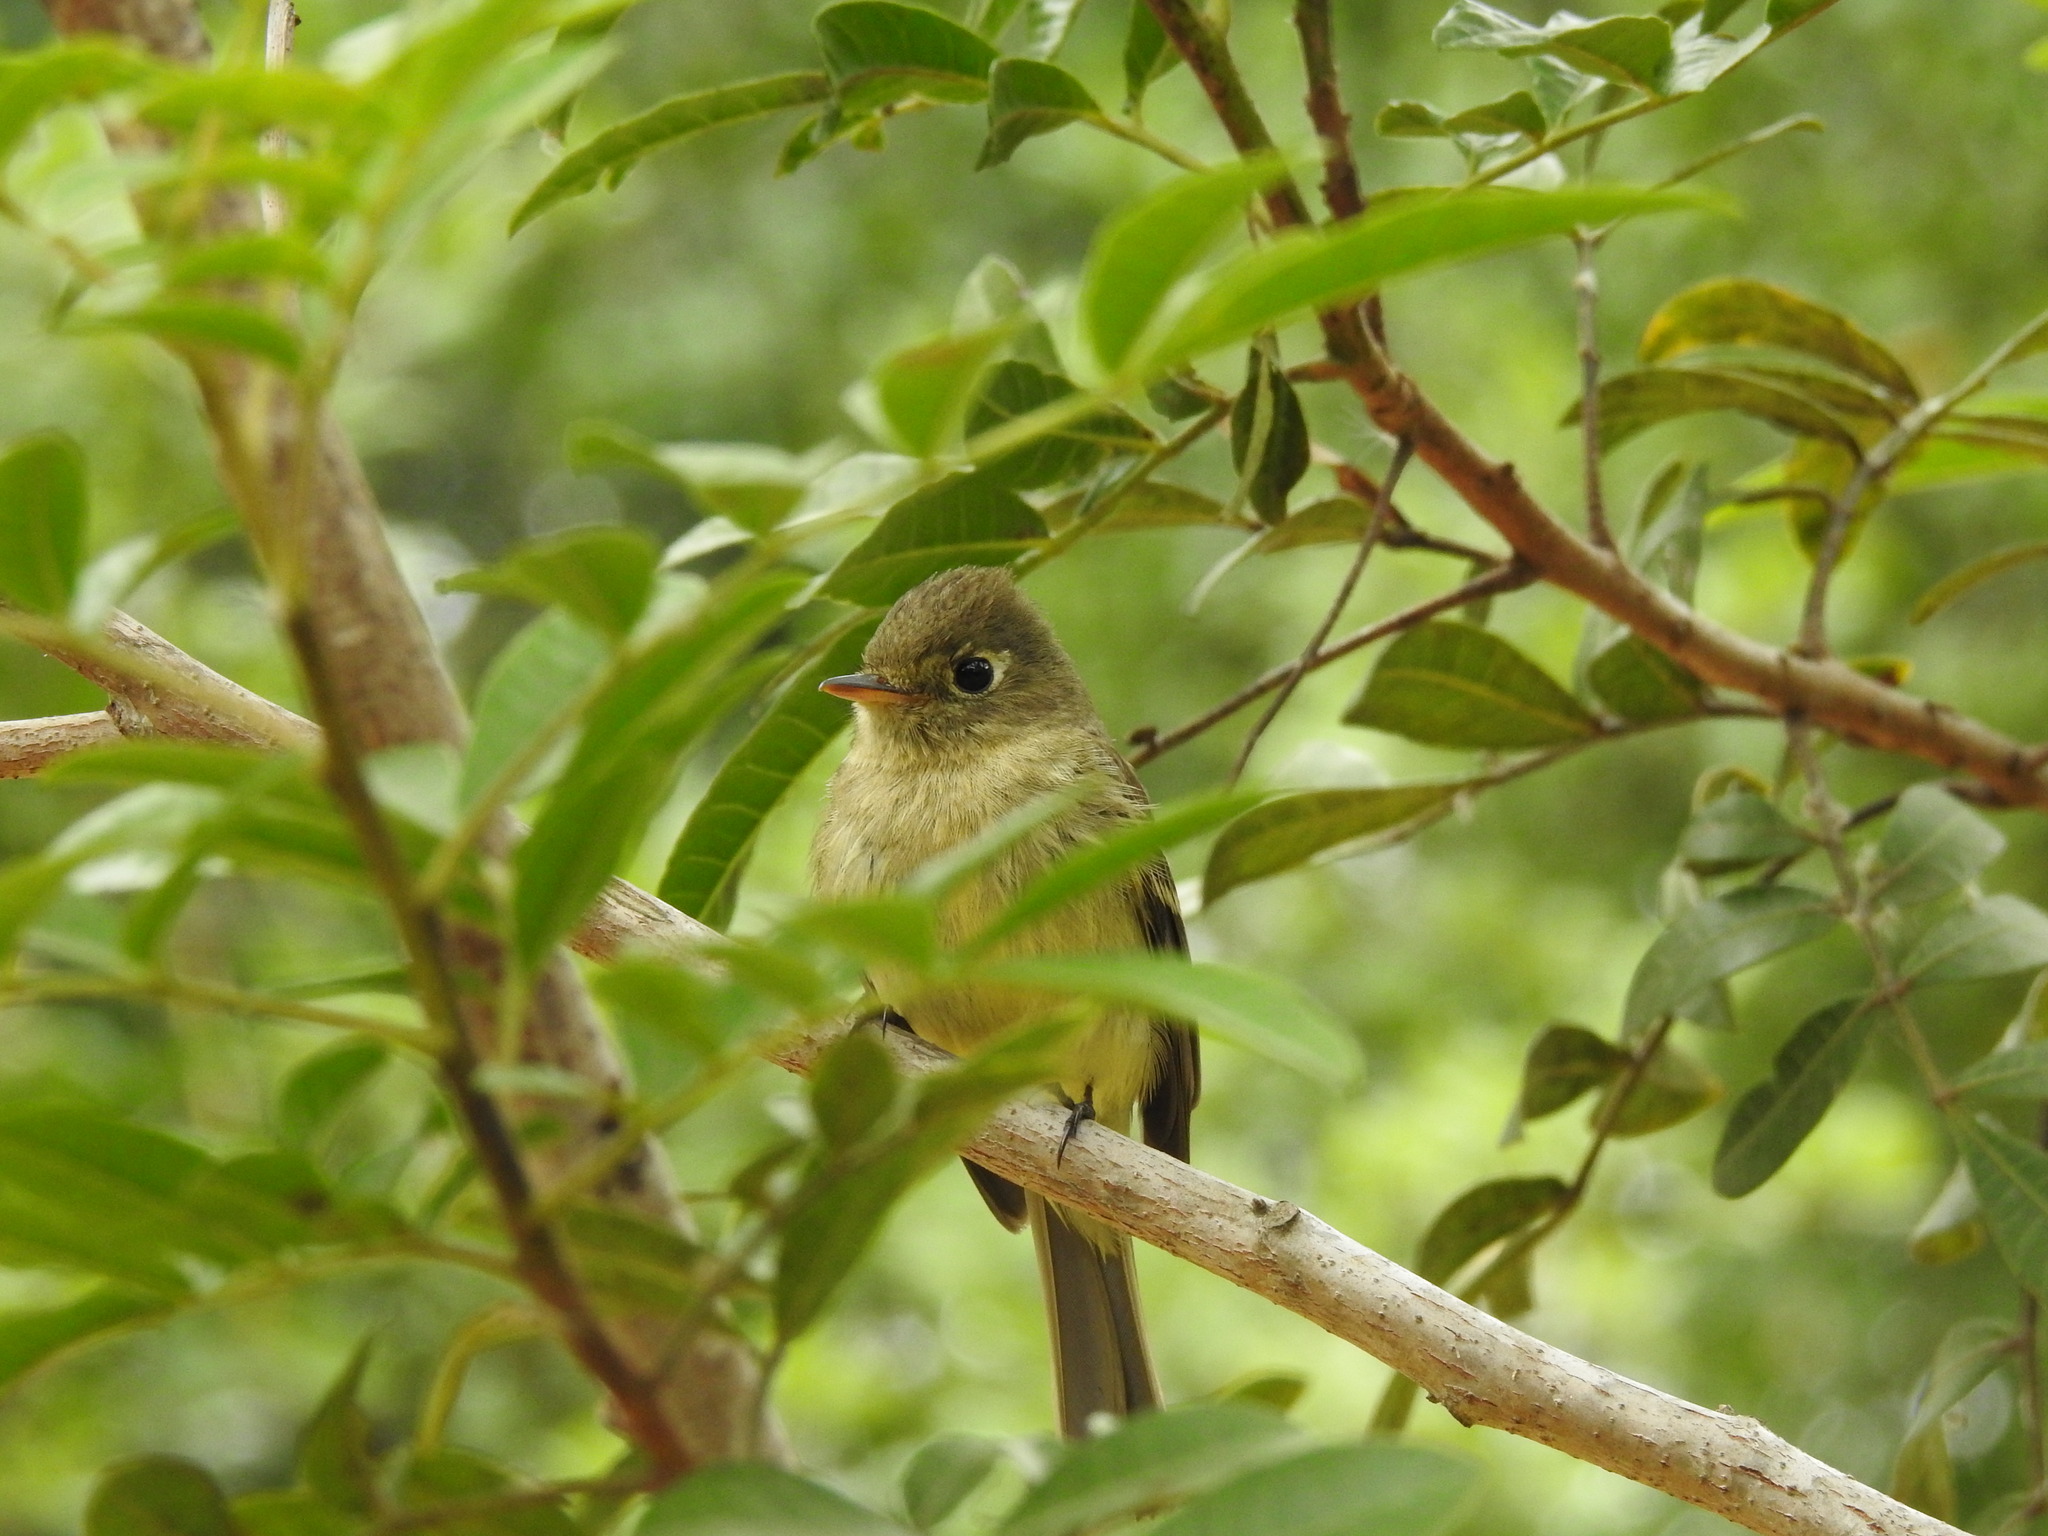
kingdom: Animalia
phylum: Chordata
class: Aves
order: Passeriformes
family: Tyrannidae
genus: Empidonax
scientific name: Empidonax difficilis
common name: Pacific-slope flycatcher
